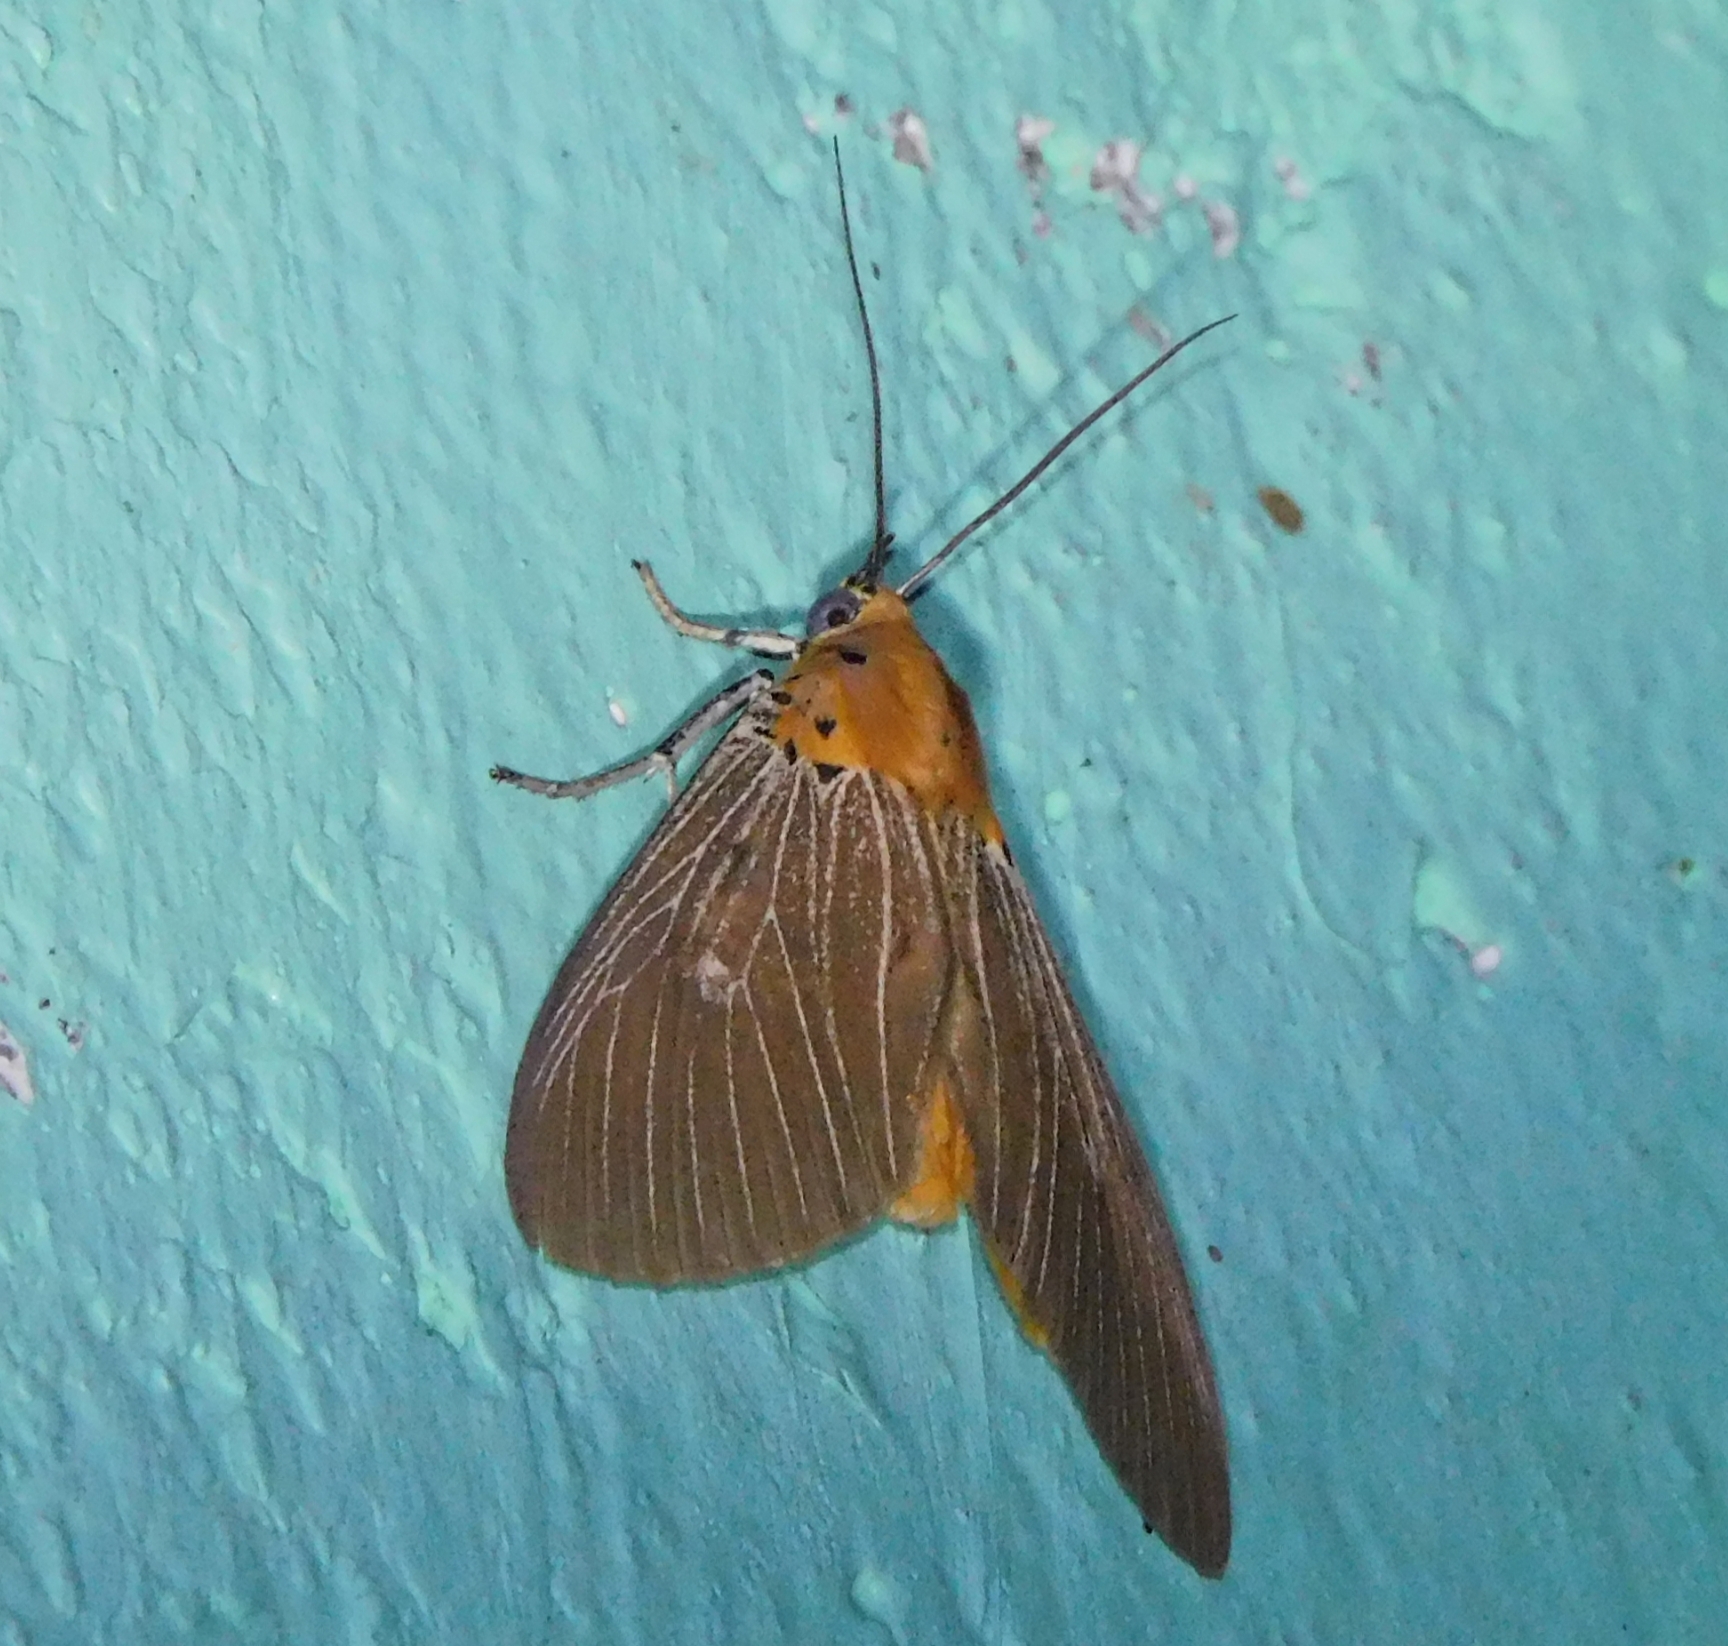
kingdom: Animalia
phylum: Arthropoda
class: Insecta
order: Lepidoptera
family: Erebidae
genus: Asota
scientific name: Asota caricae
